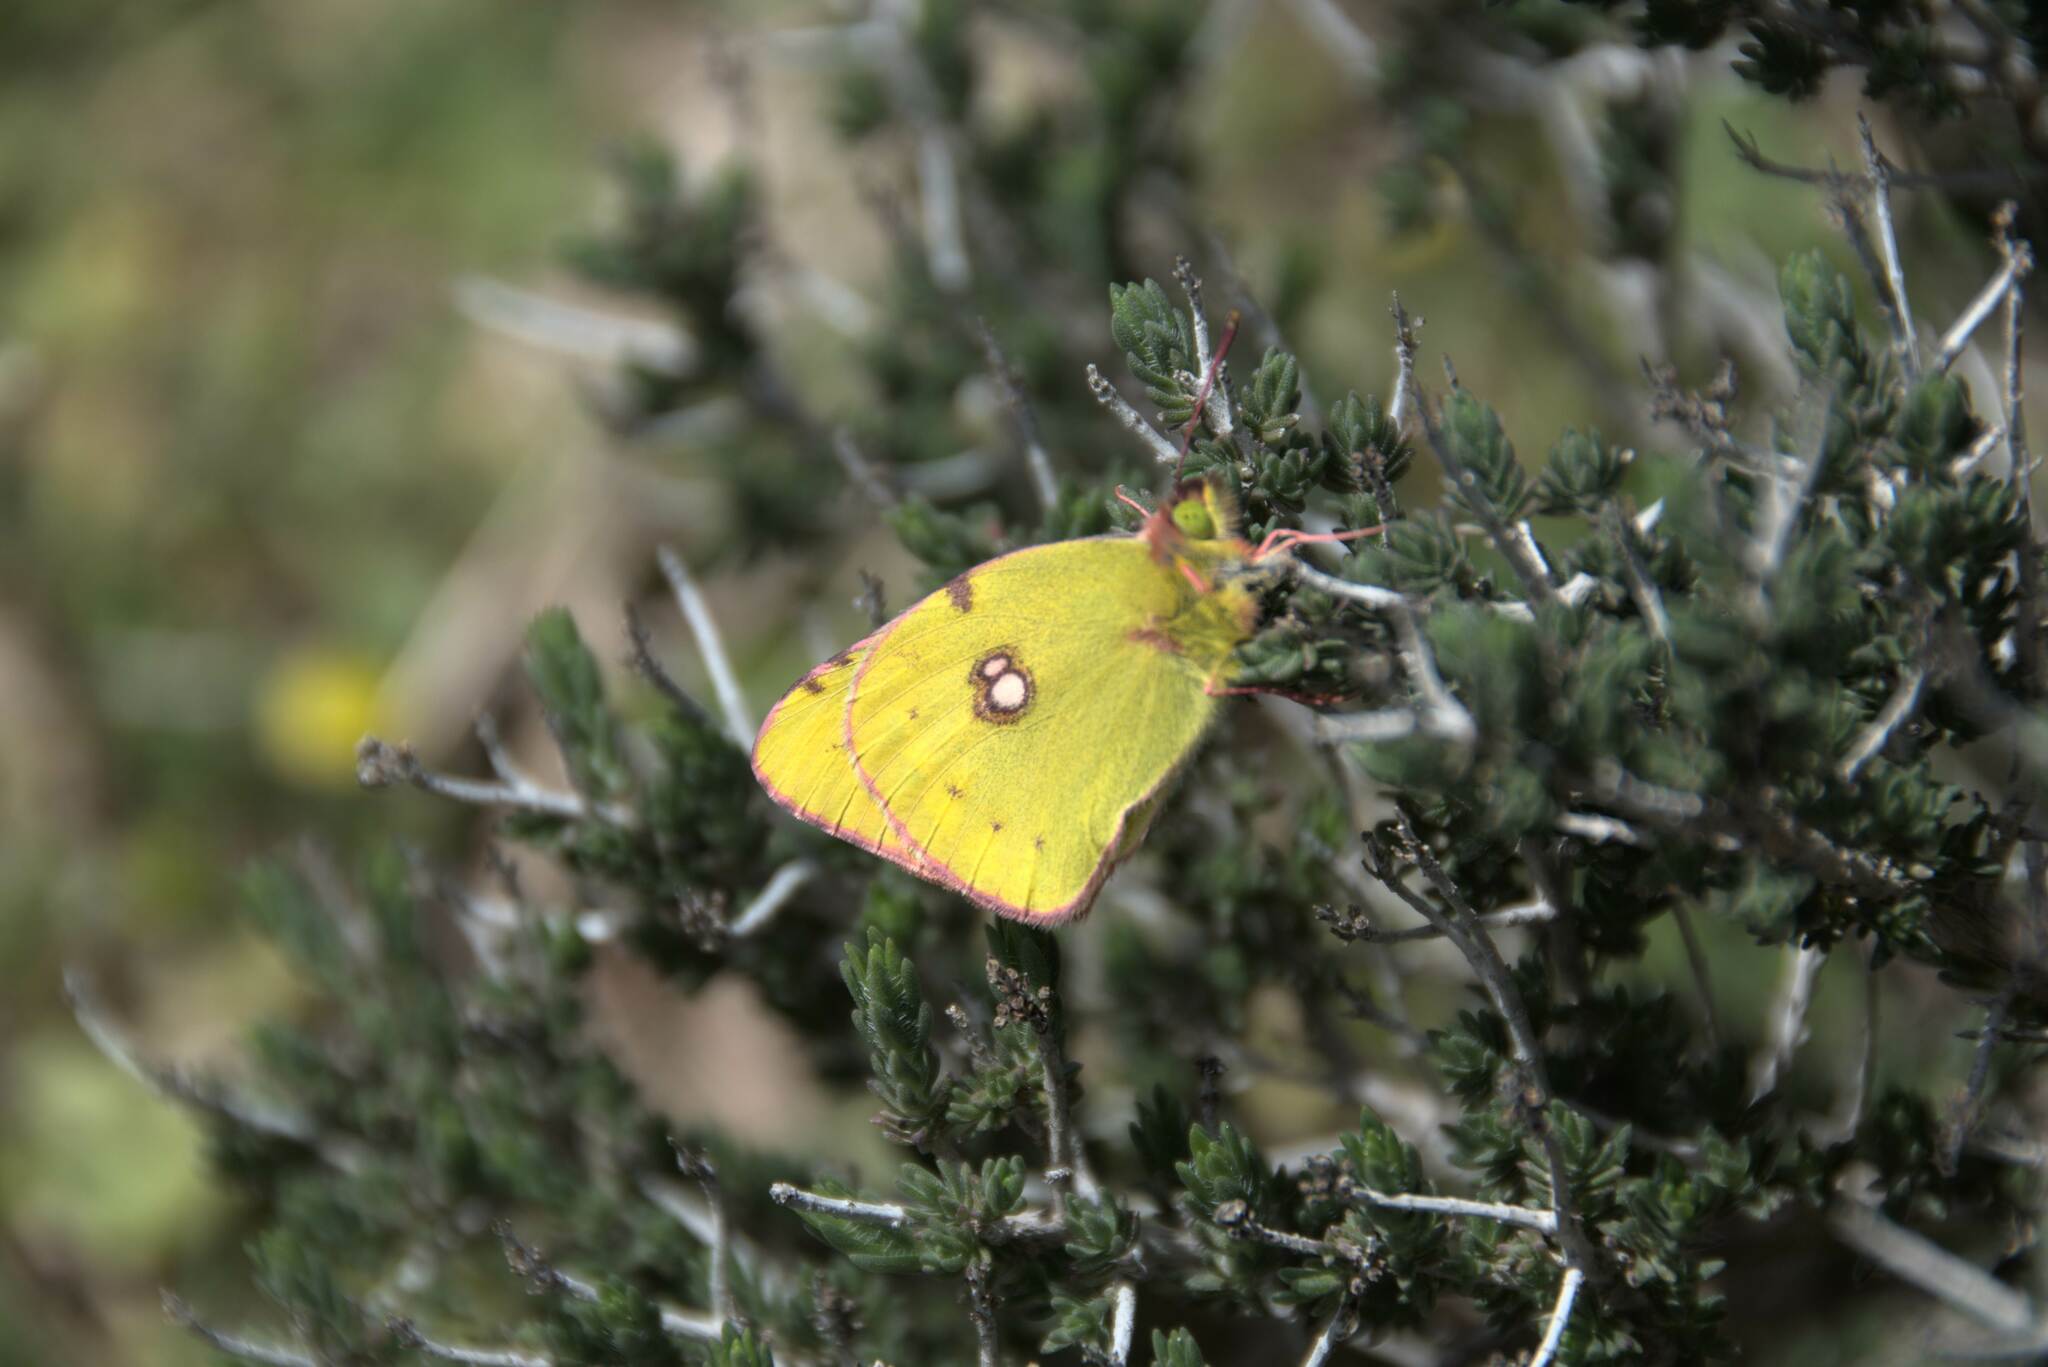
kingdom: Animalia
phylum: Arthropoda
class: Insecta
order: Lepidoptera
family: Pieridae
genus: Colias
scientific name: Colias croceus
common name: Clouded yellow
